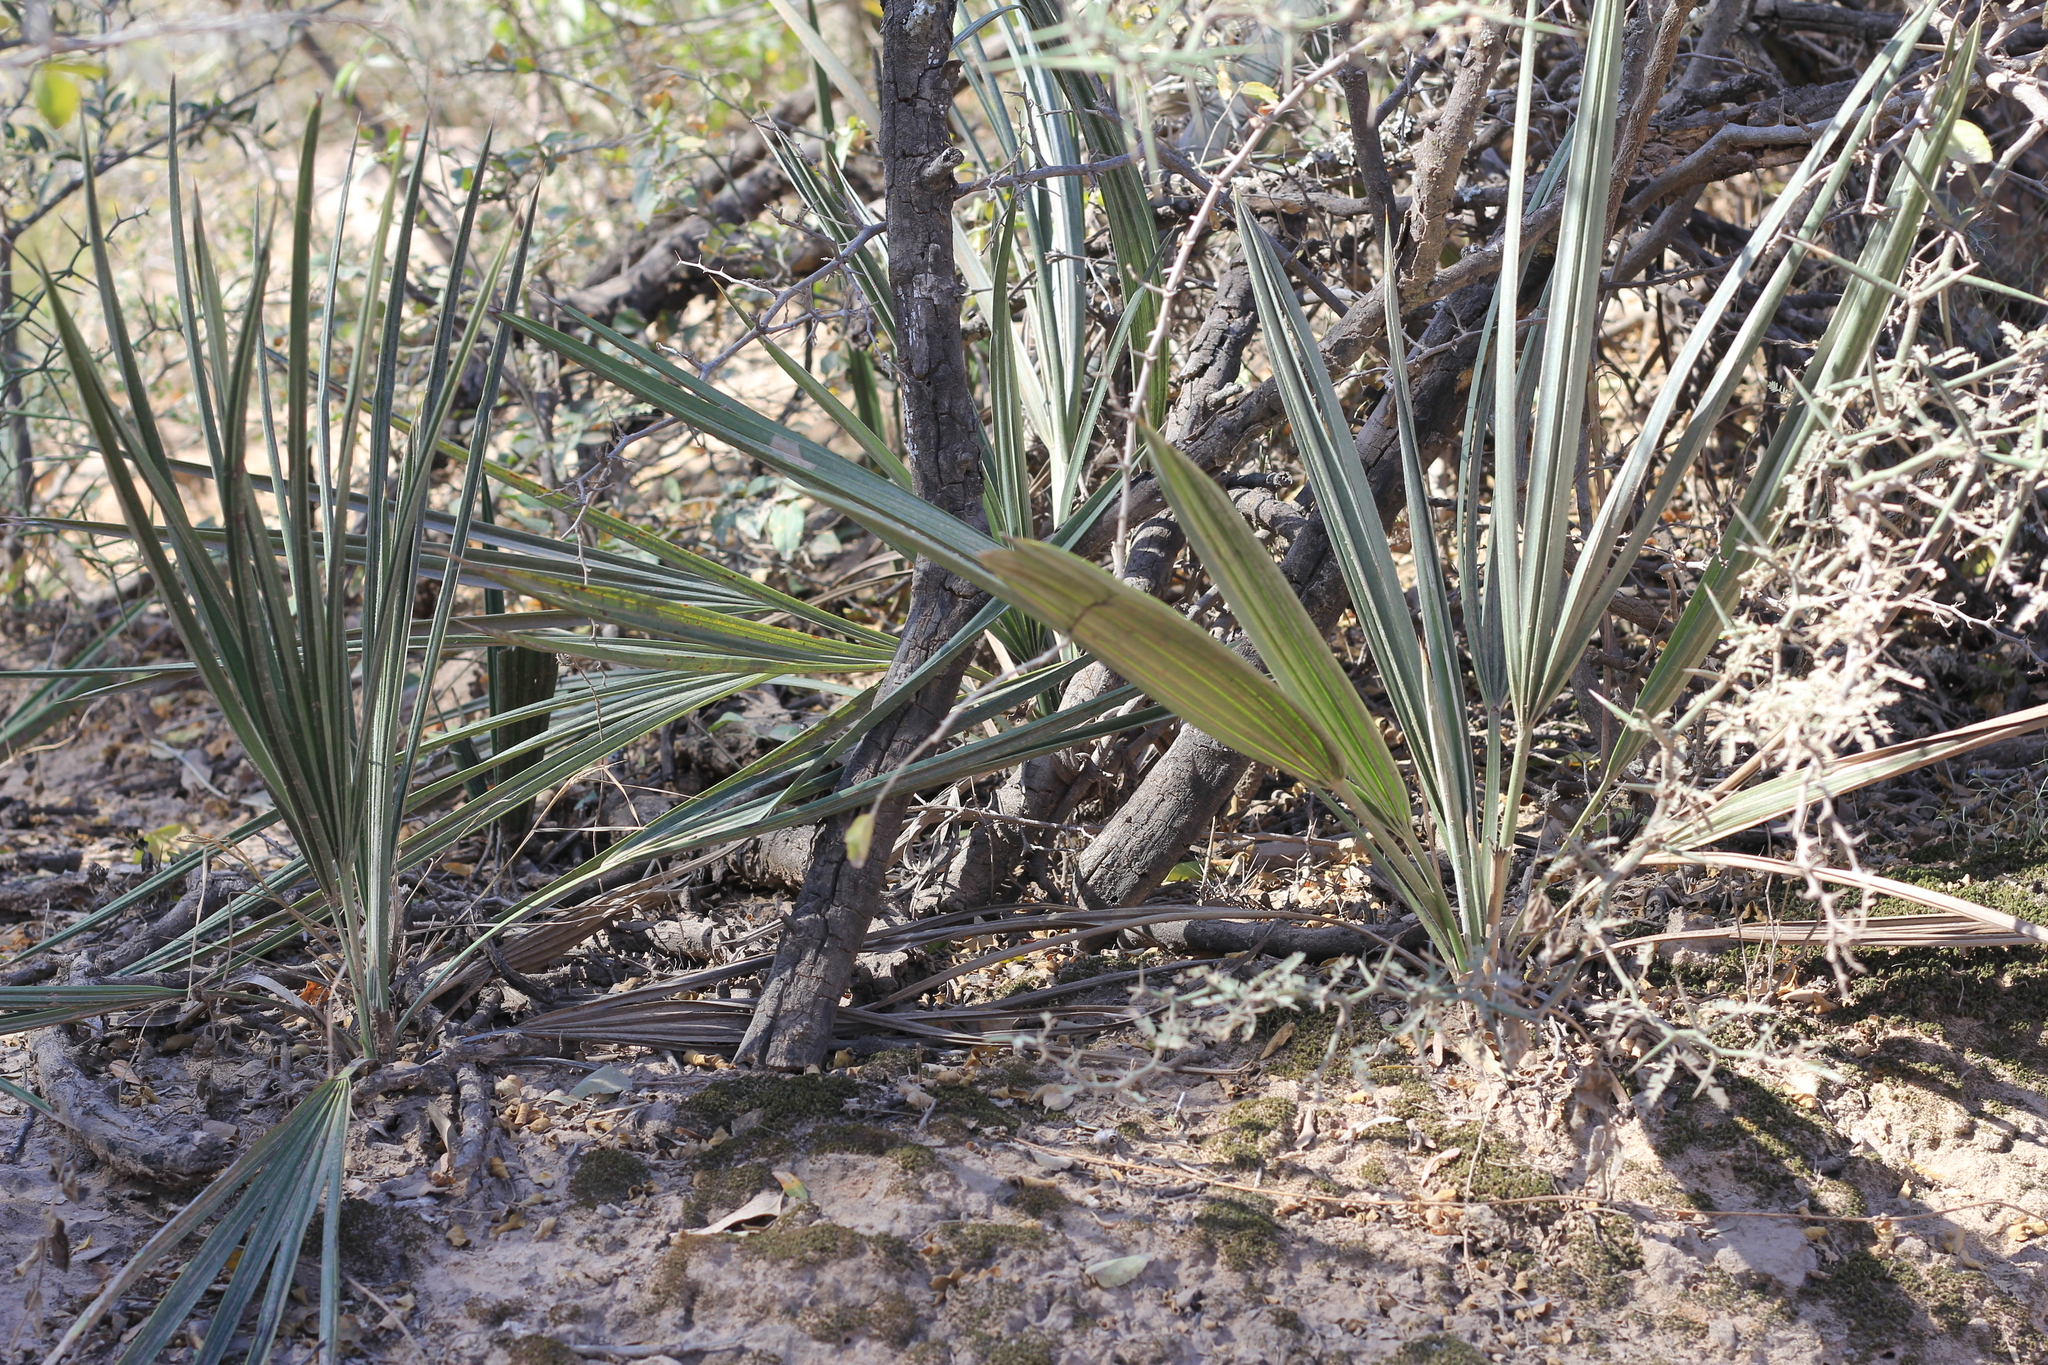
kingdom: Plantae
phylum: Tracheophyta
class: Liliopsida
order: Arecales
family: Arecaceae
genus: Trithrinax
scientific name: Trithrinax campestris
